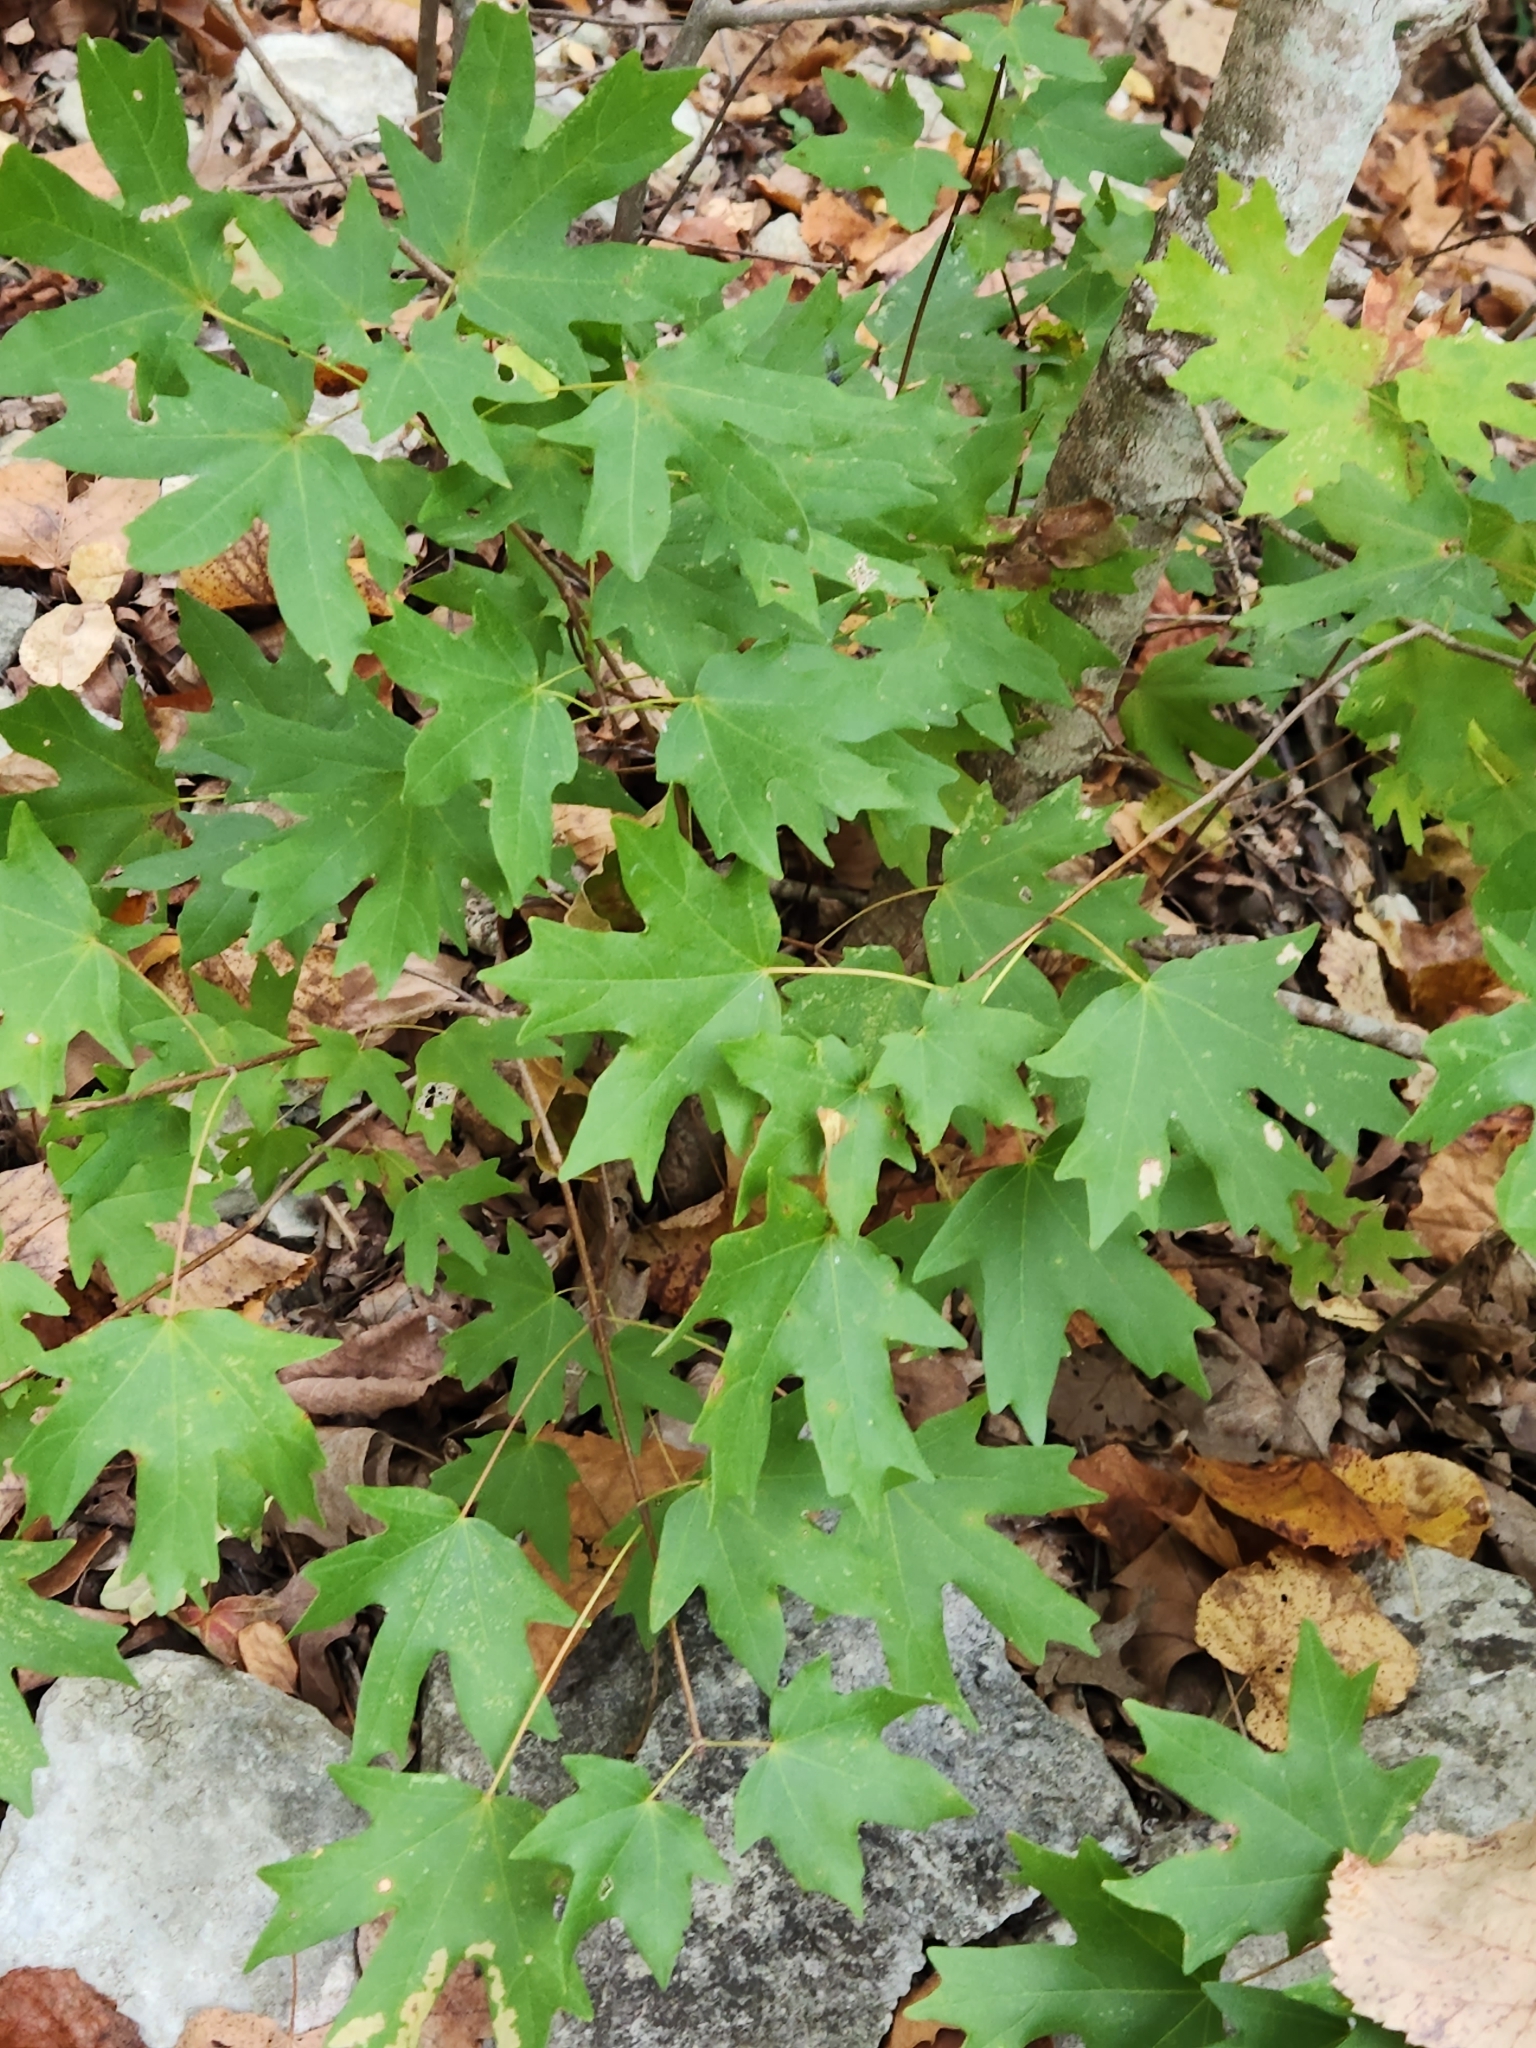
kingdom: Plantae
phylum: Tracheophyta
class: Magnoliopsida
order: Sapindales
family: Sapindaceae
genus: Acer
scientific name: Acer grandidentatum
